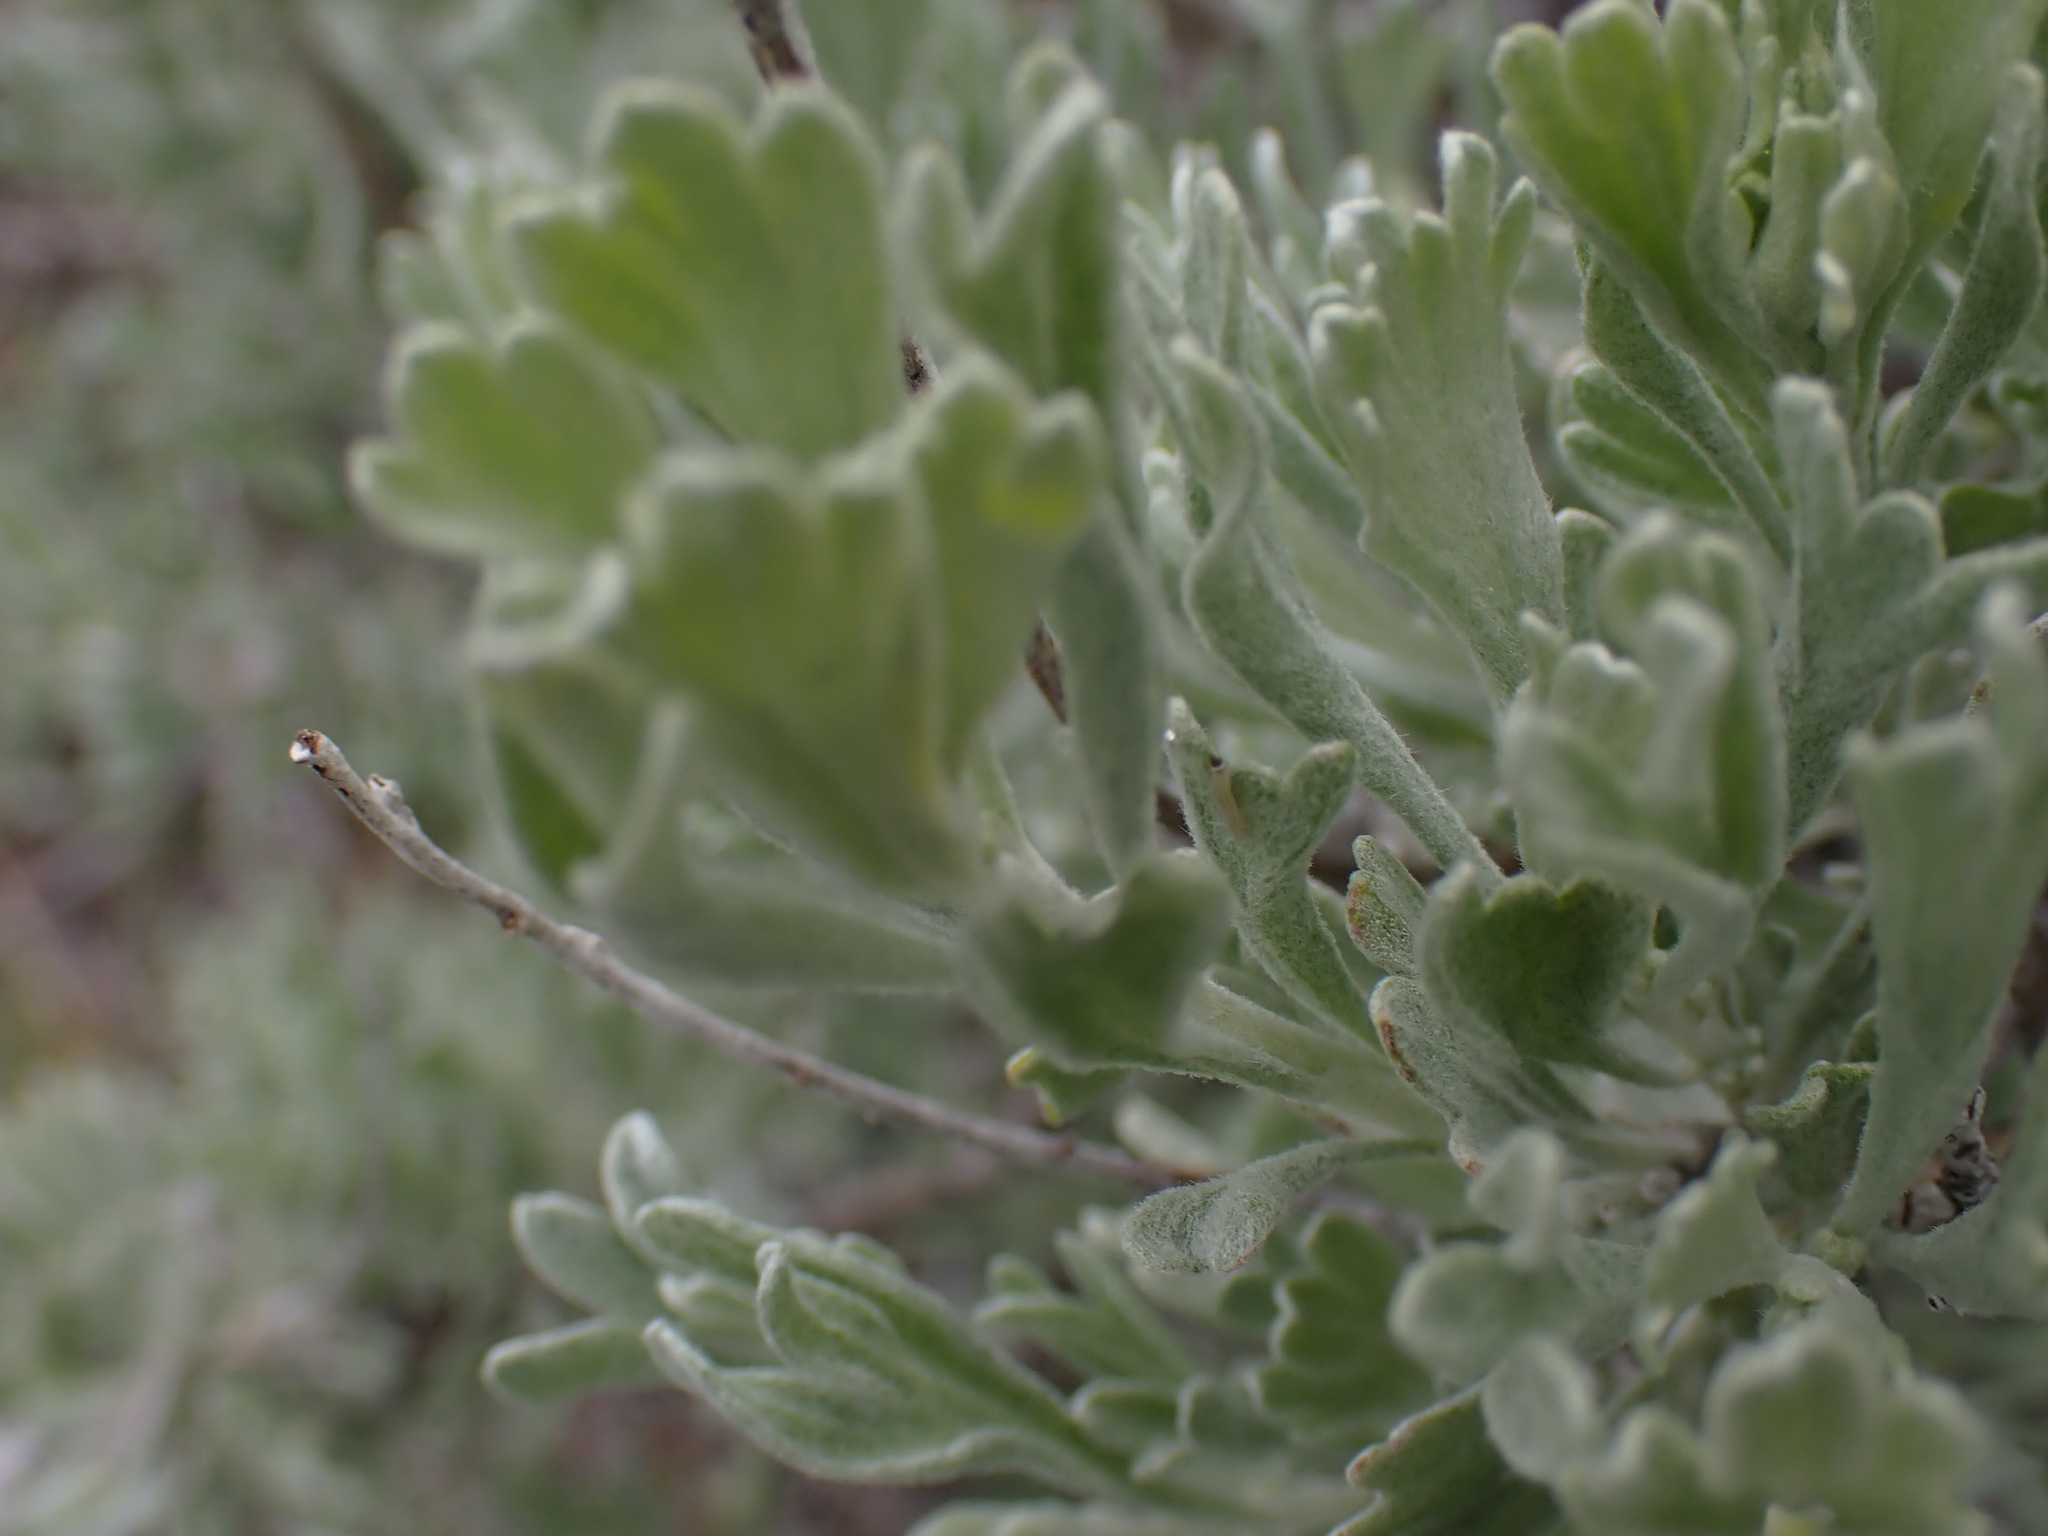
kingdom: Plantae
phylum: Tracheophyta
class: Magnoliopsida
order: Asterales
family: Asteraceae
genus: Artemisia
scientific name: Artemisia tridentata
